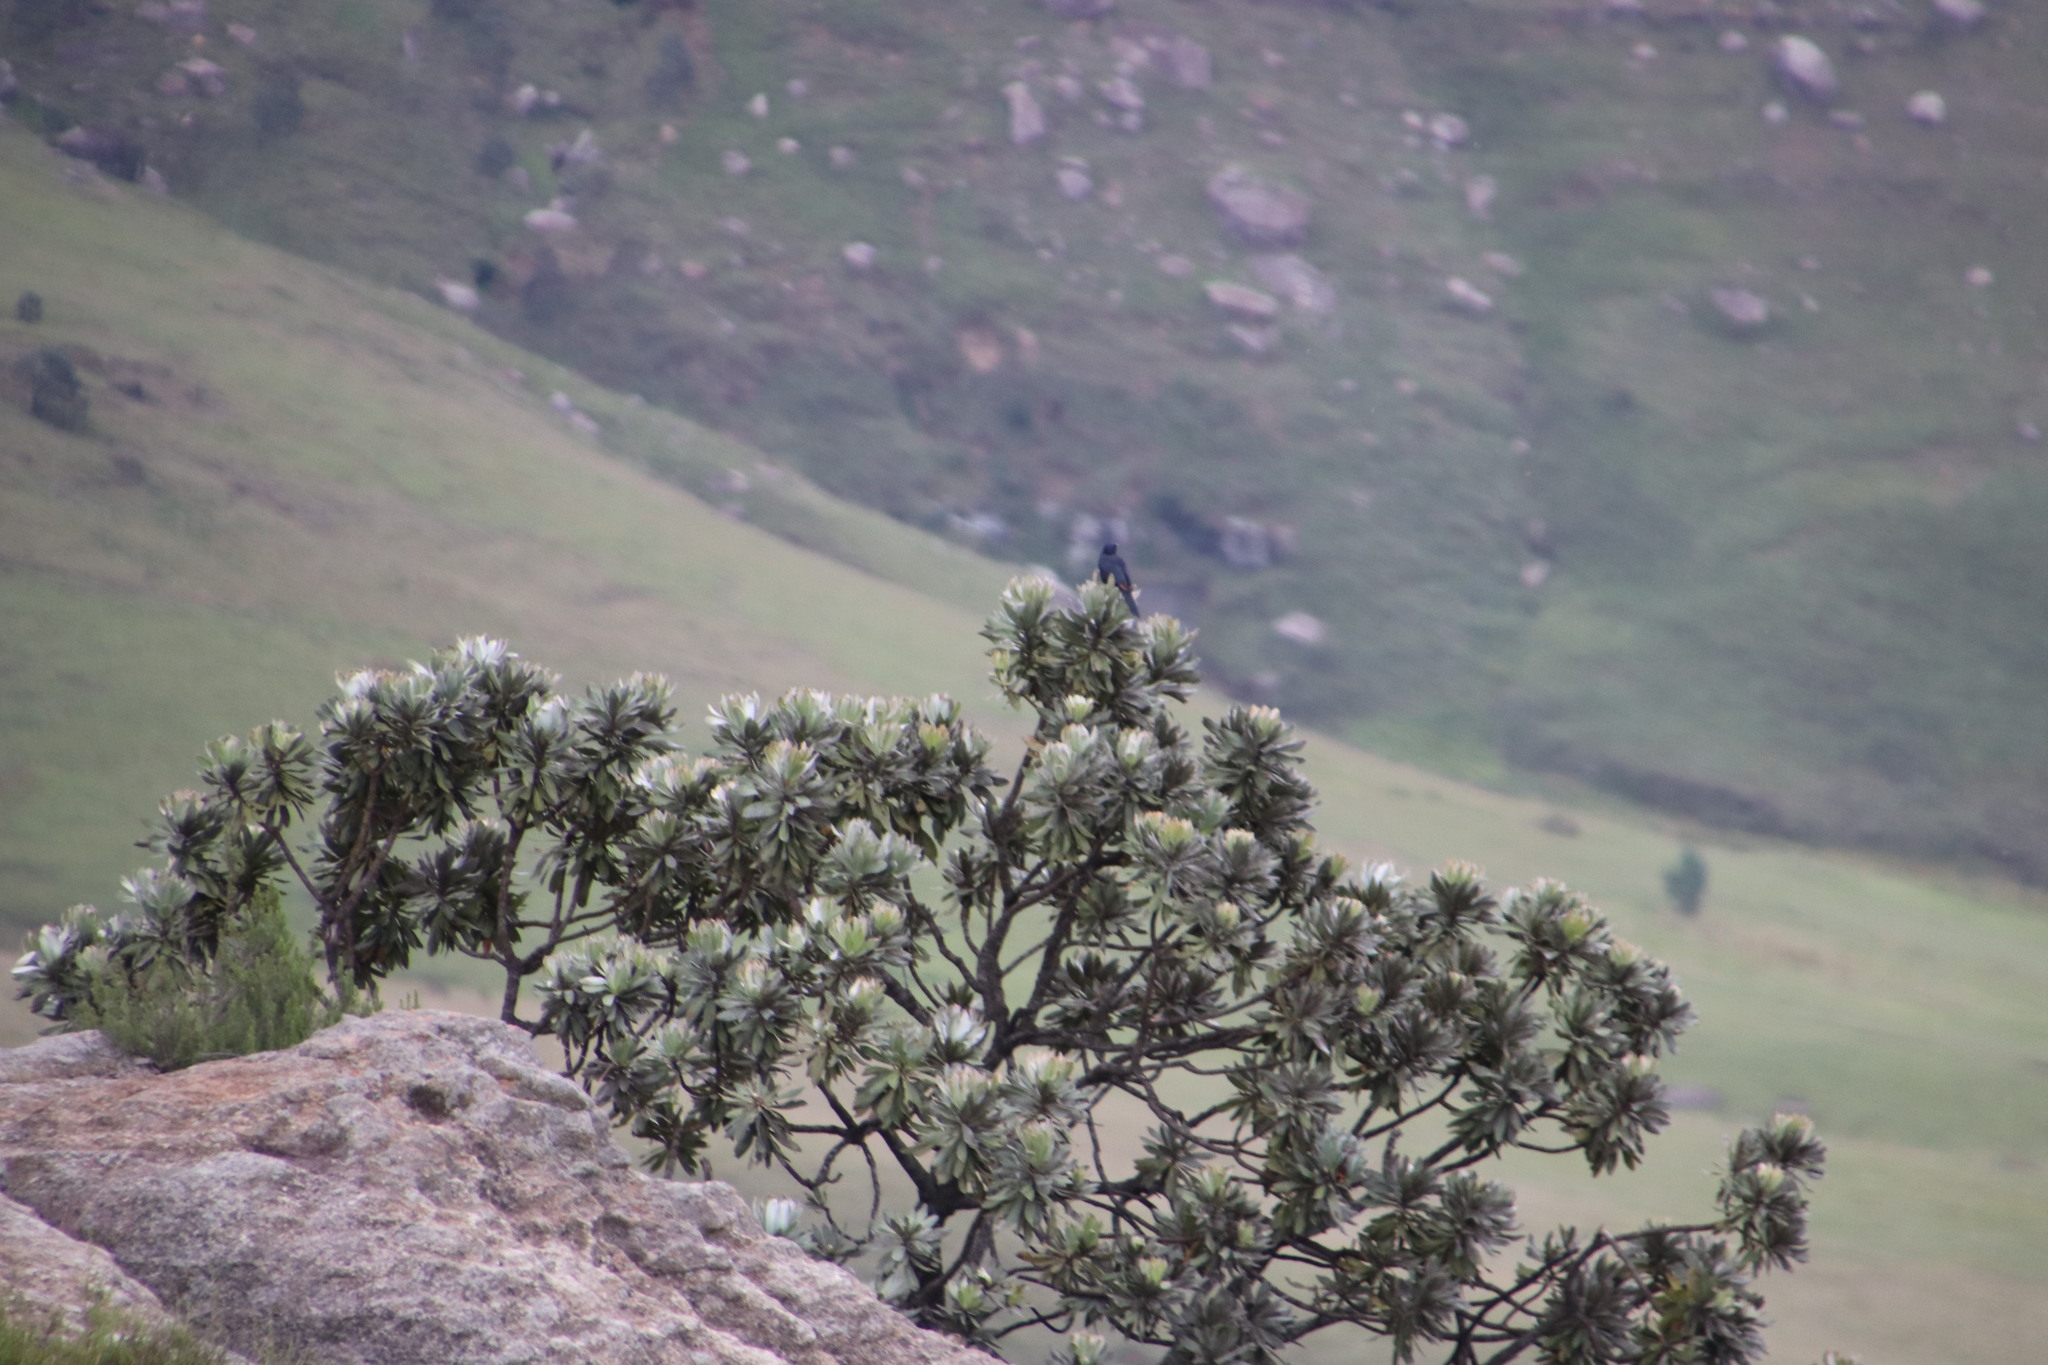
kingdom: Plantae
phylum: Tracheophyta
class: Magnoliopsida
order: Proteales
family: Proteaceae
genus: Protea
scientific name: Protea roupelliae
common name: Silver sugarbush
